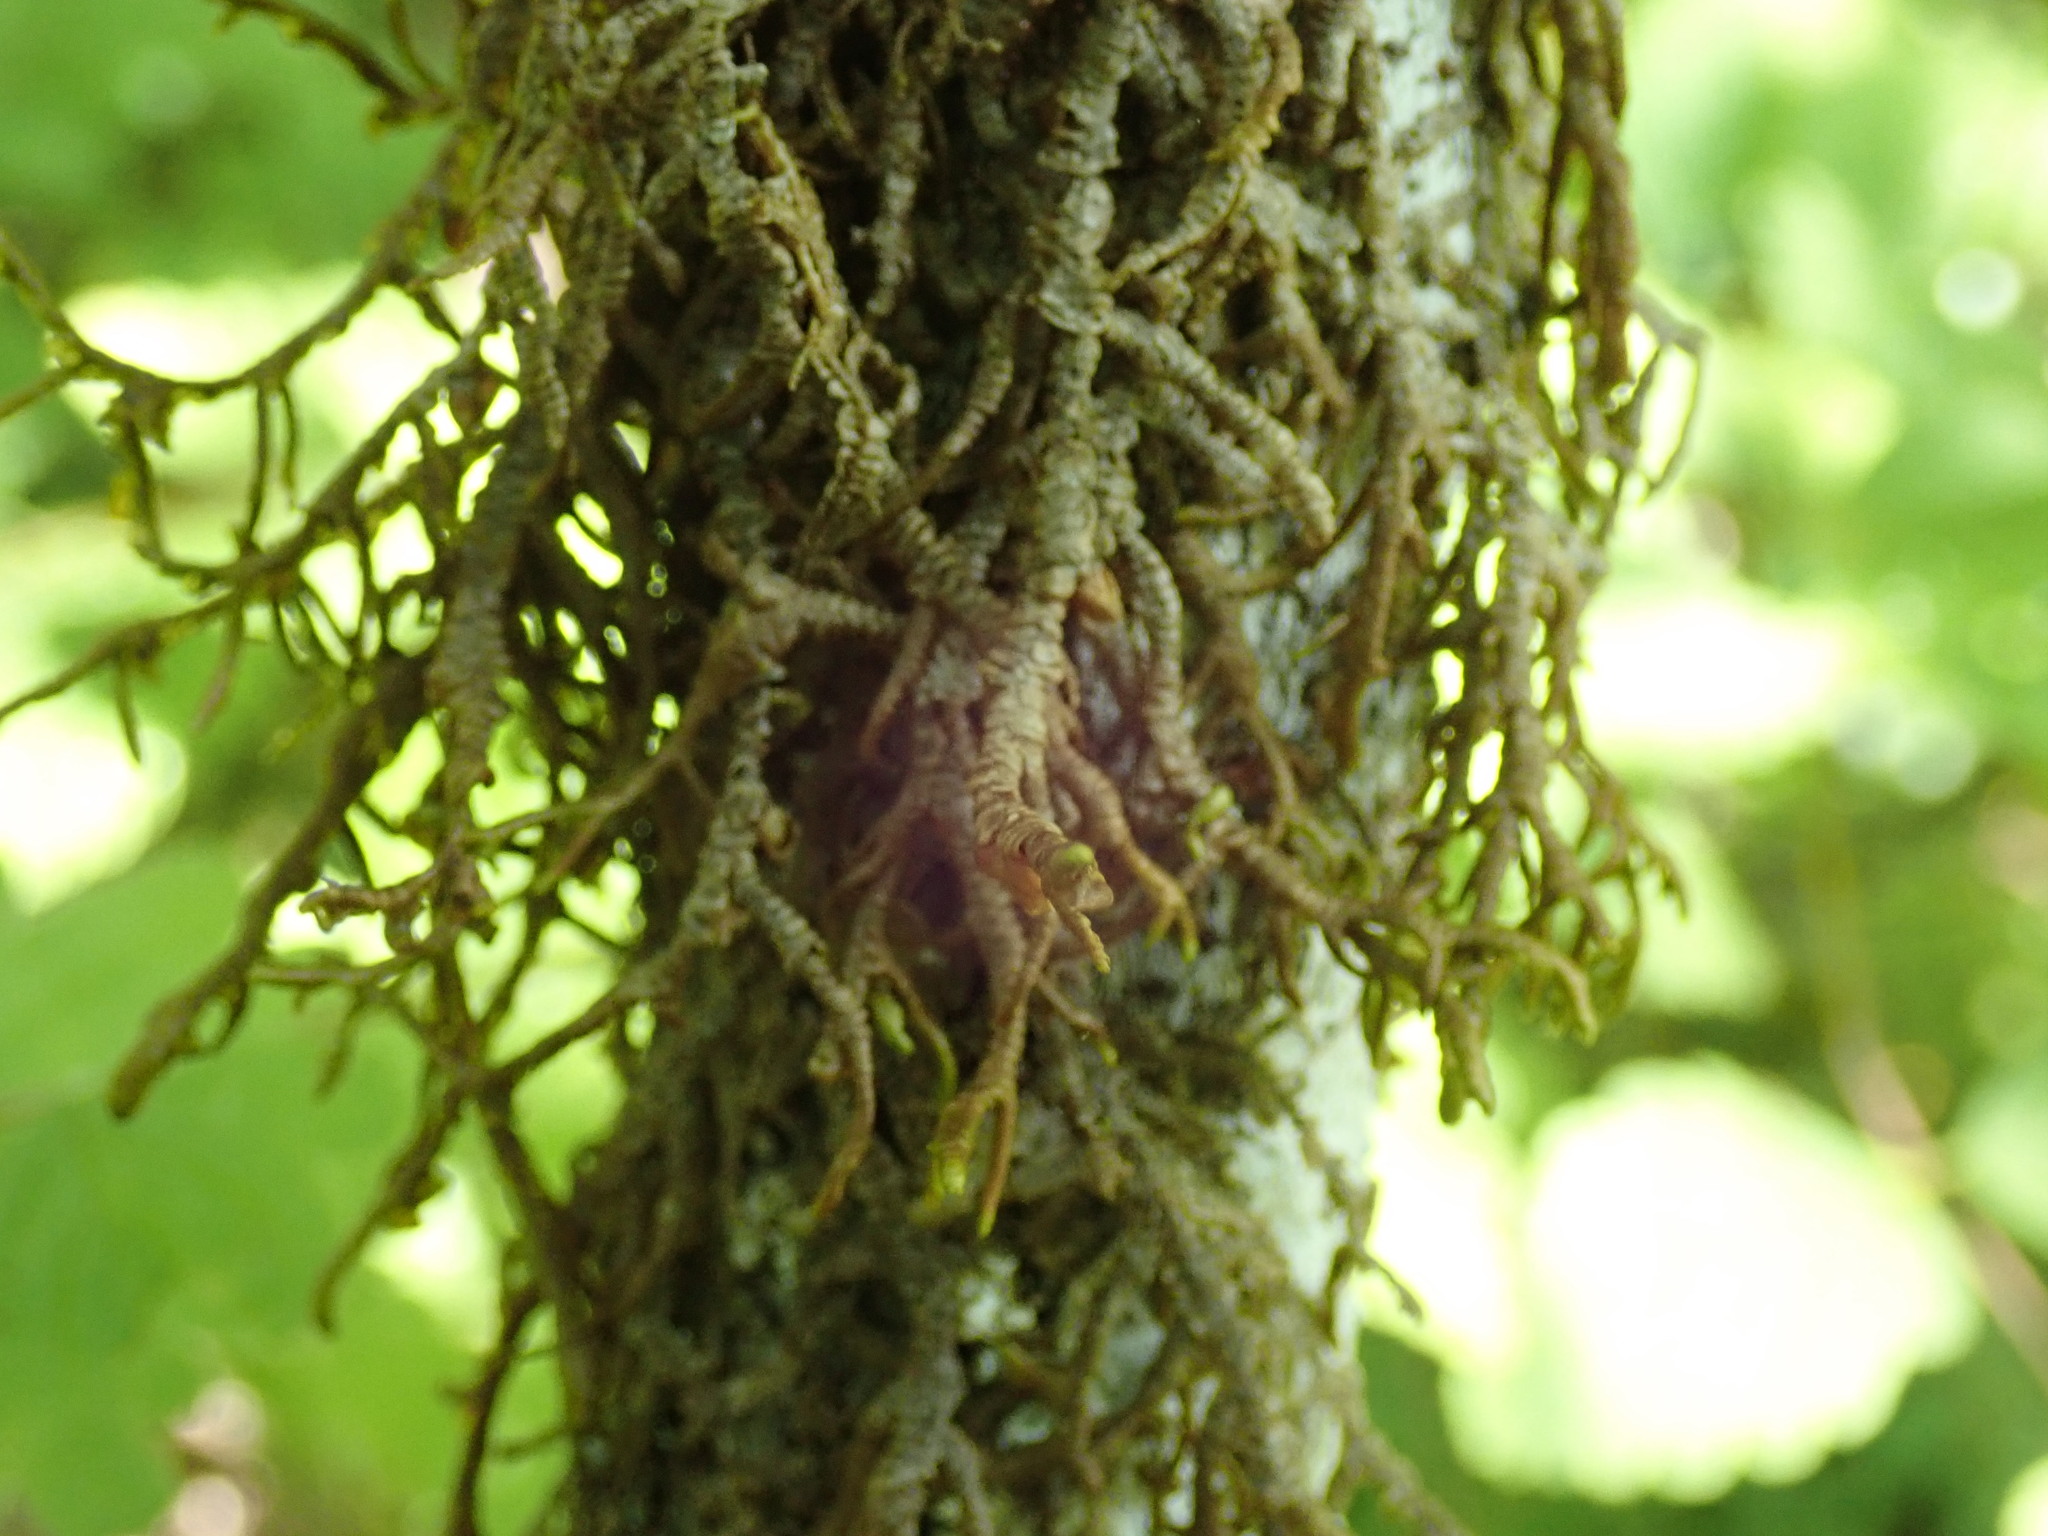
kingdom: Plantae
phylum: Marchantiophyta
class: Jungermanniopsida
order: Porellales
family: Porellaceae
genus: Porella
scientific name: Porella navicularis
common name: Tree ruffle liverwort
